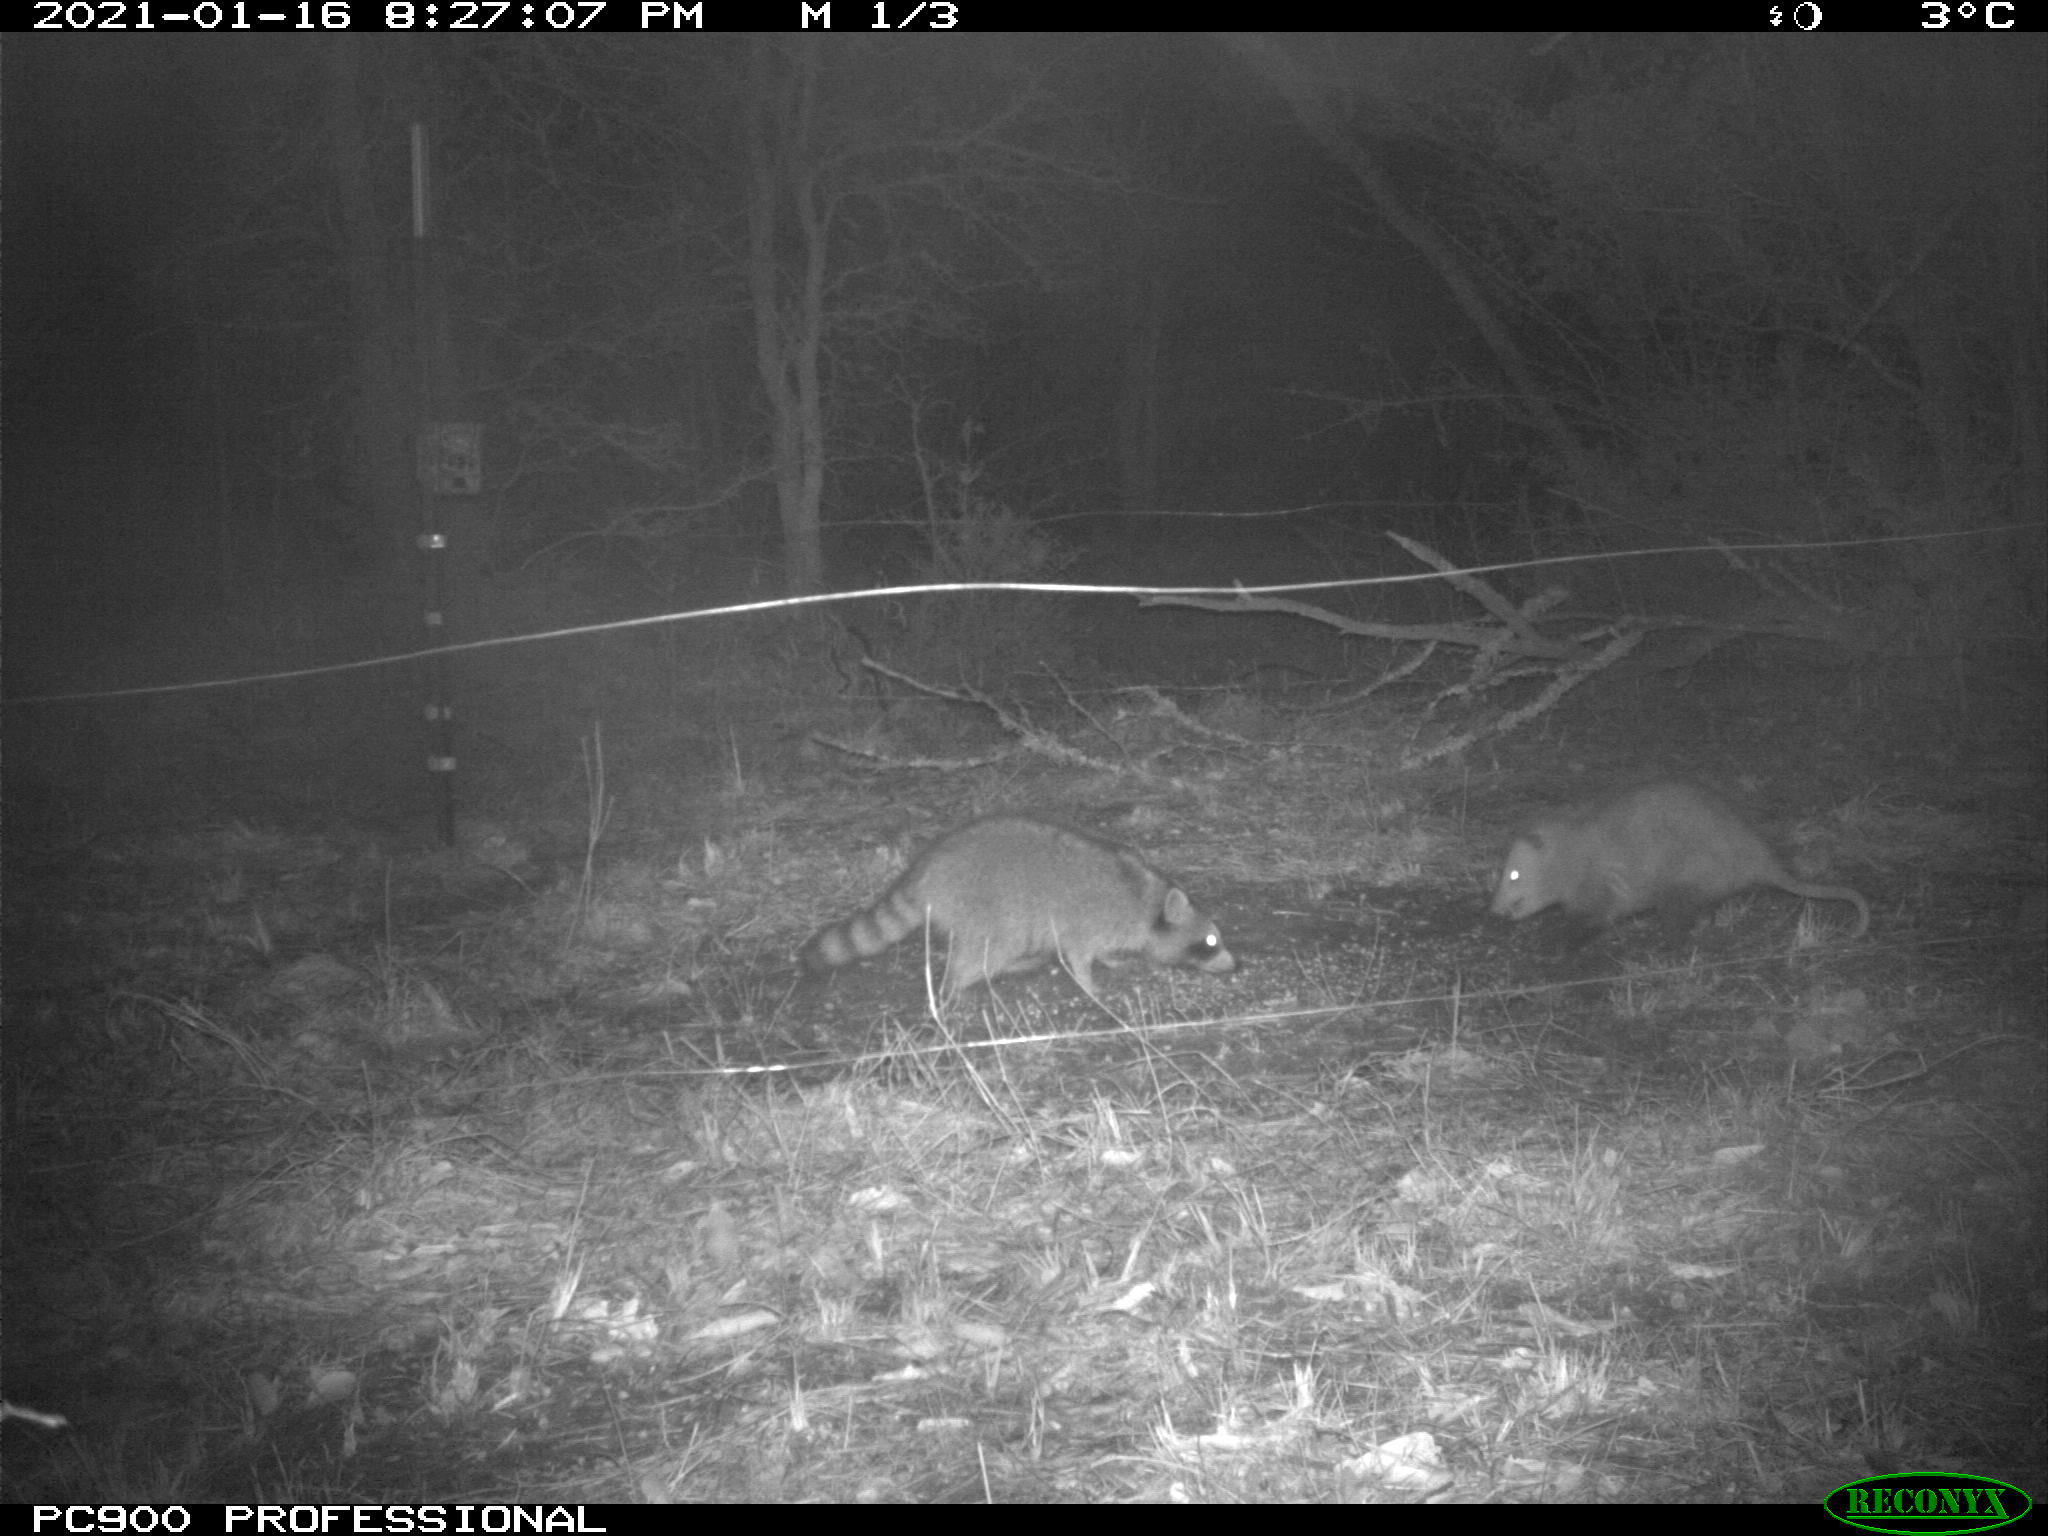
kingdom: Animalia
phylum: Chordata
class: Mammalia
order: Carnivora
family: Procyonidae
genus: Procyon
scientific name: Procyon lotor
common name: Raccoon
